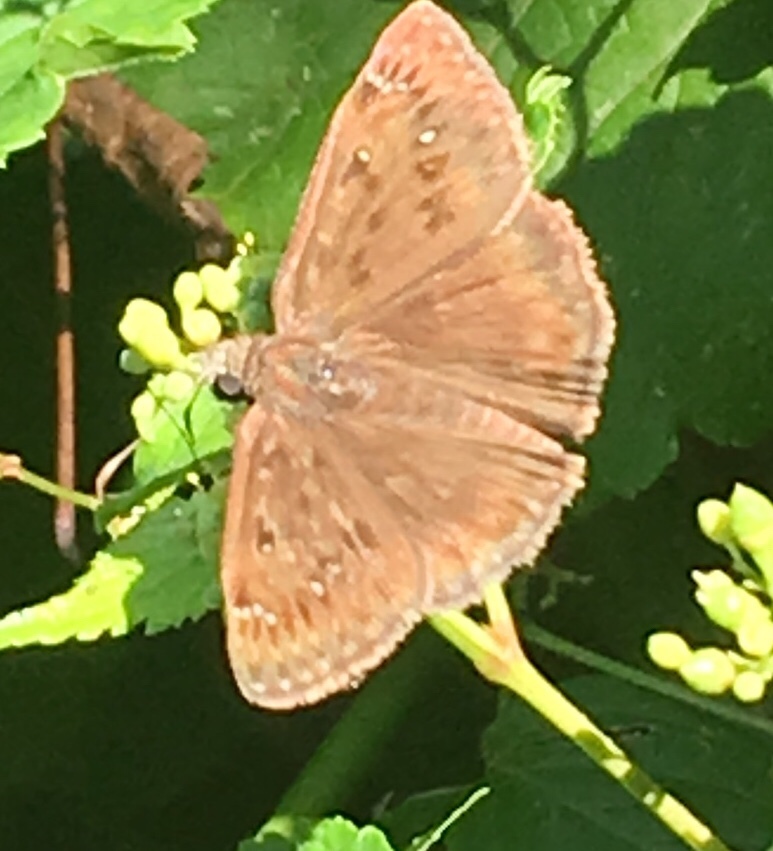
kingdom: Animalia
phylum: Arthropoda
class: Insecta
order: Lepidoptera
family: Hesperiidae
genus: Erynnis
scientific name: Erynnis horatius
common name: Horace's duskywing
